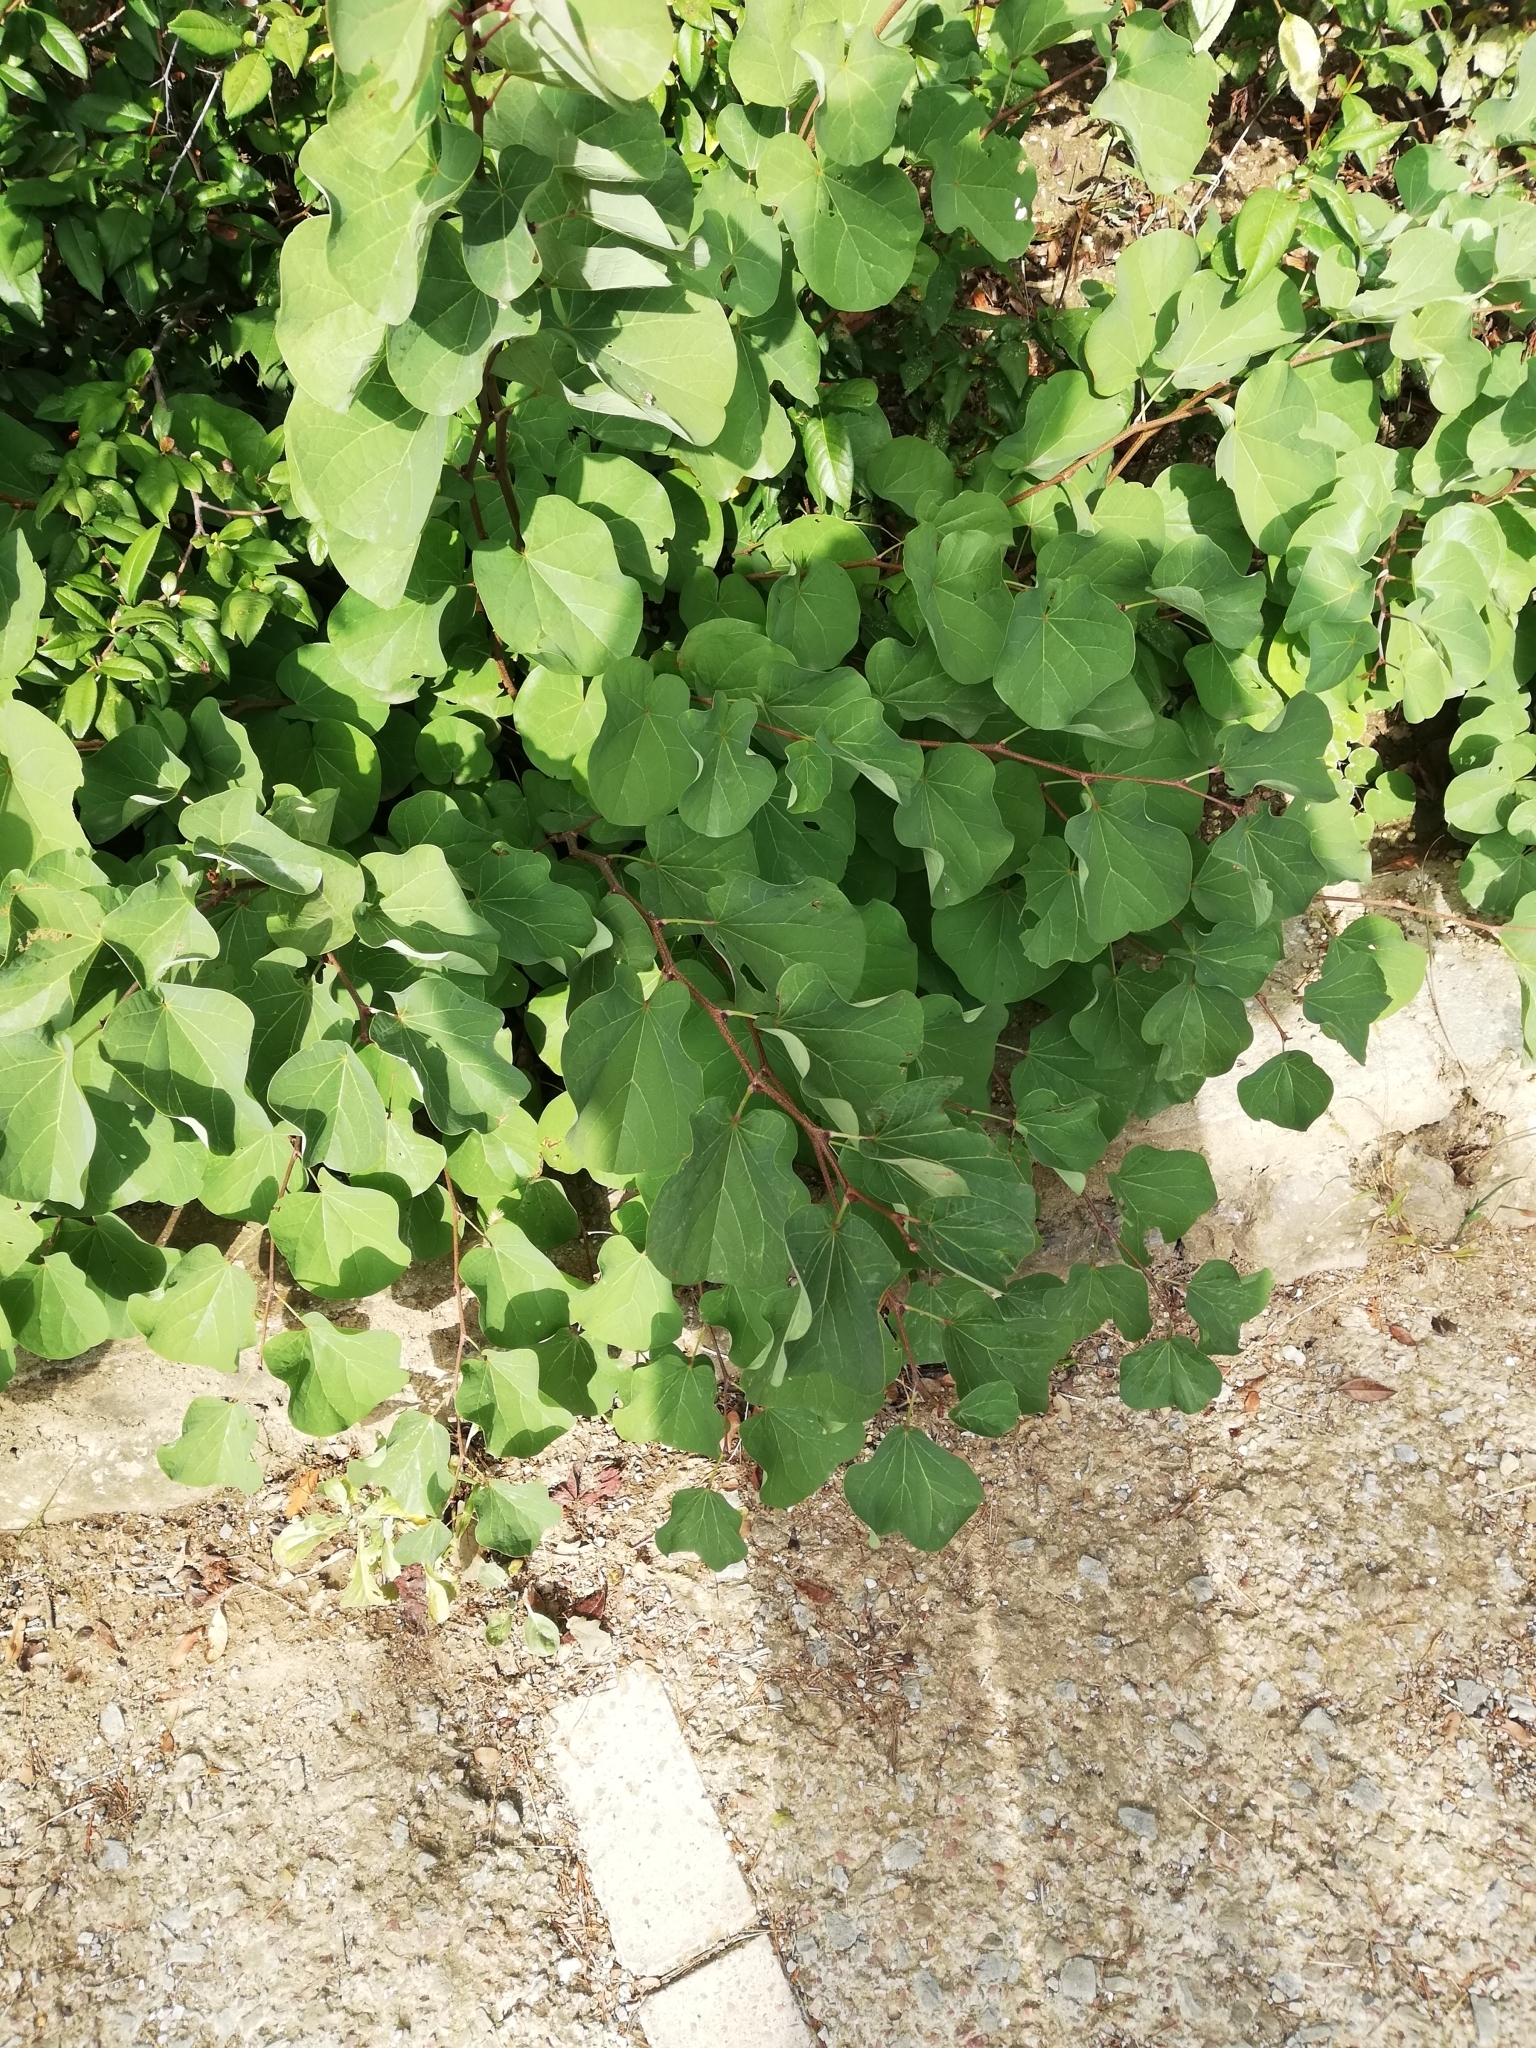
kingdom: Plantae
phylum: Tracheophyta
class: Magnoliopsida
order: Fabales
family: Fabaceae
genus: Cercis
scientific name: Cercis siliquastrum
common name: Judas tree
